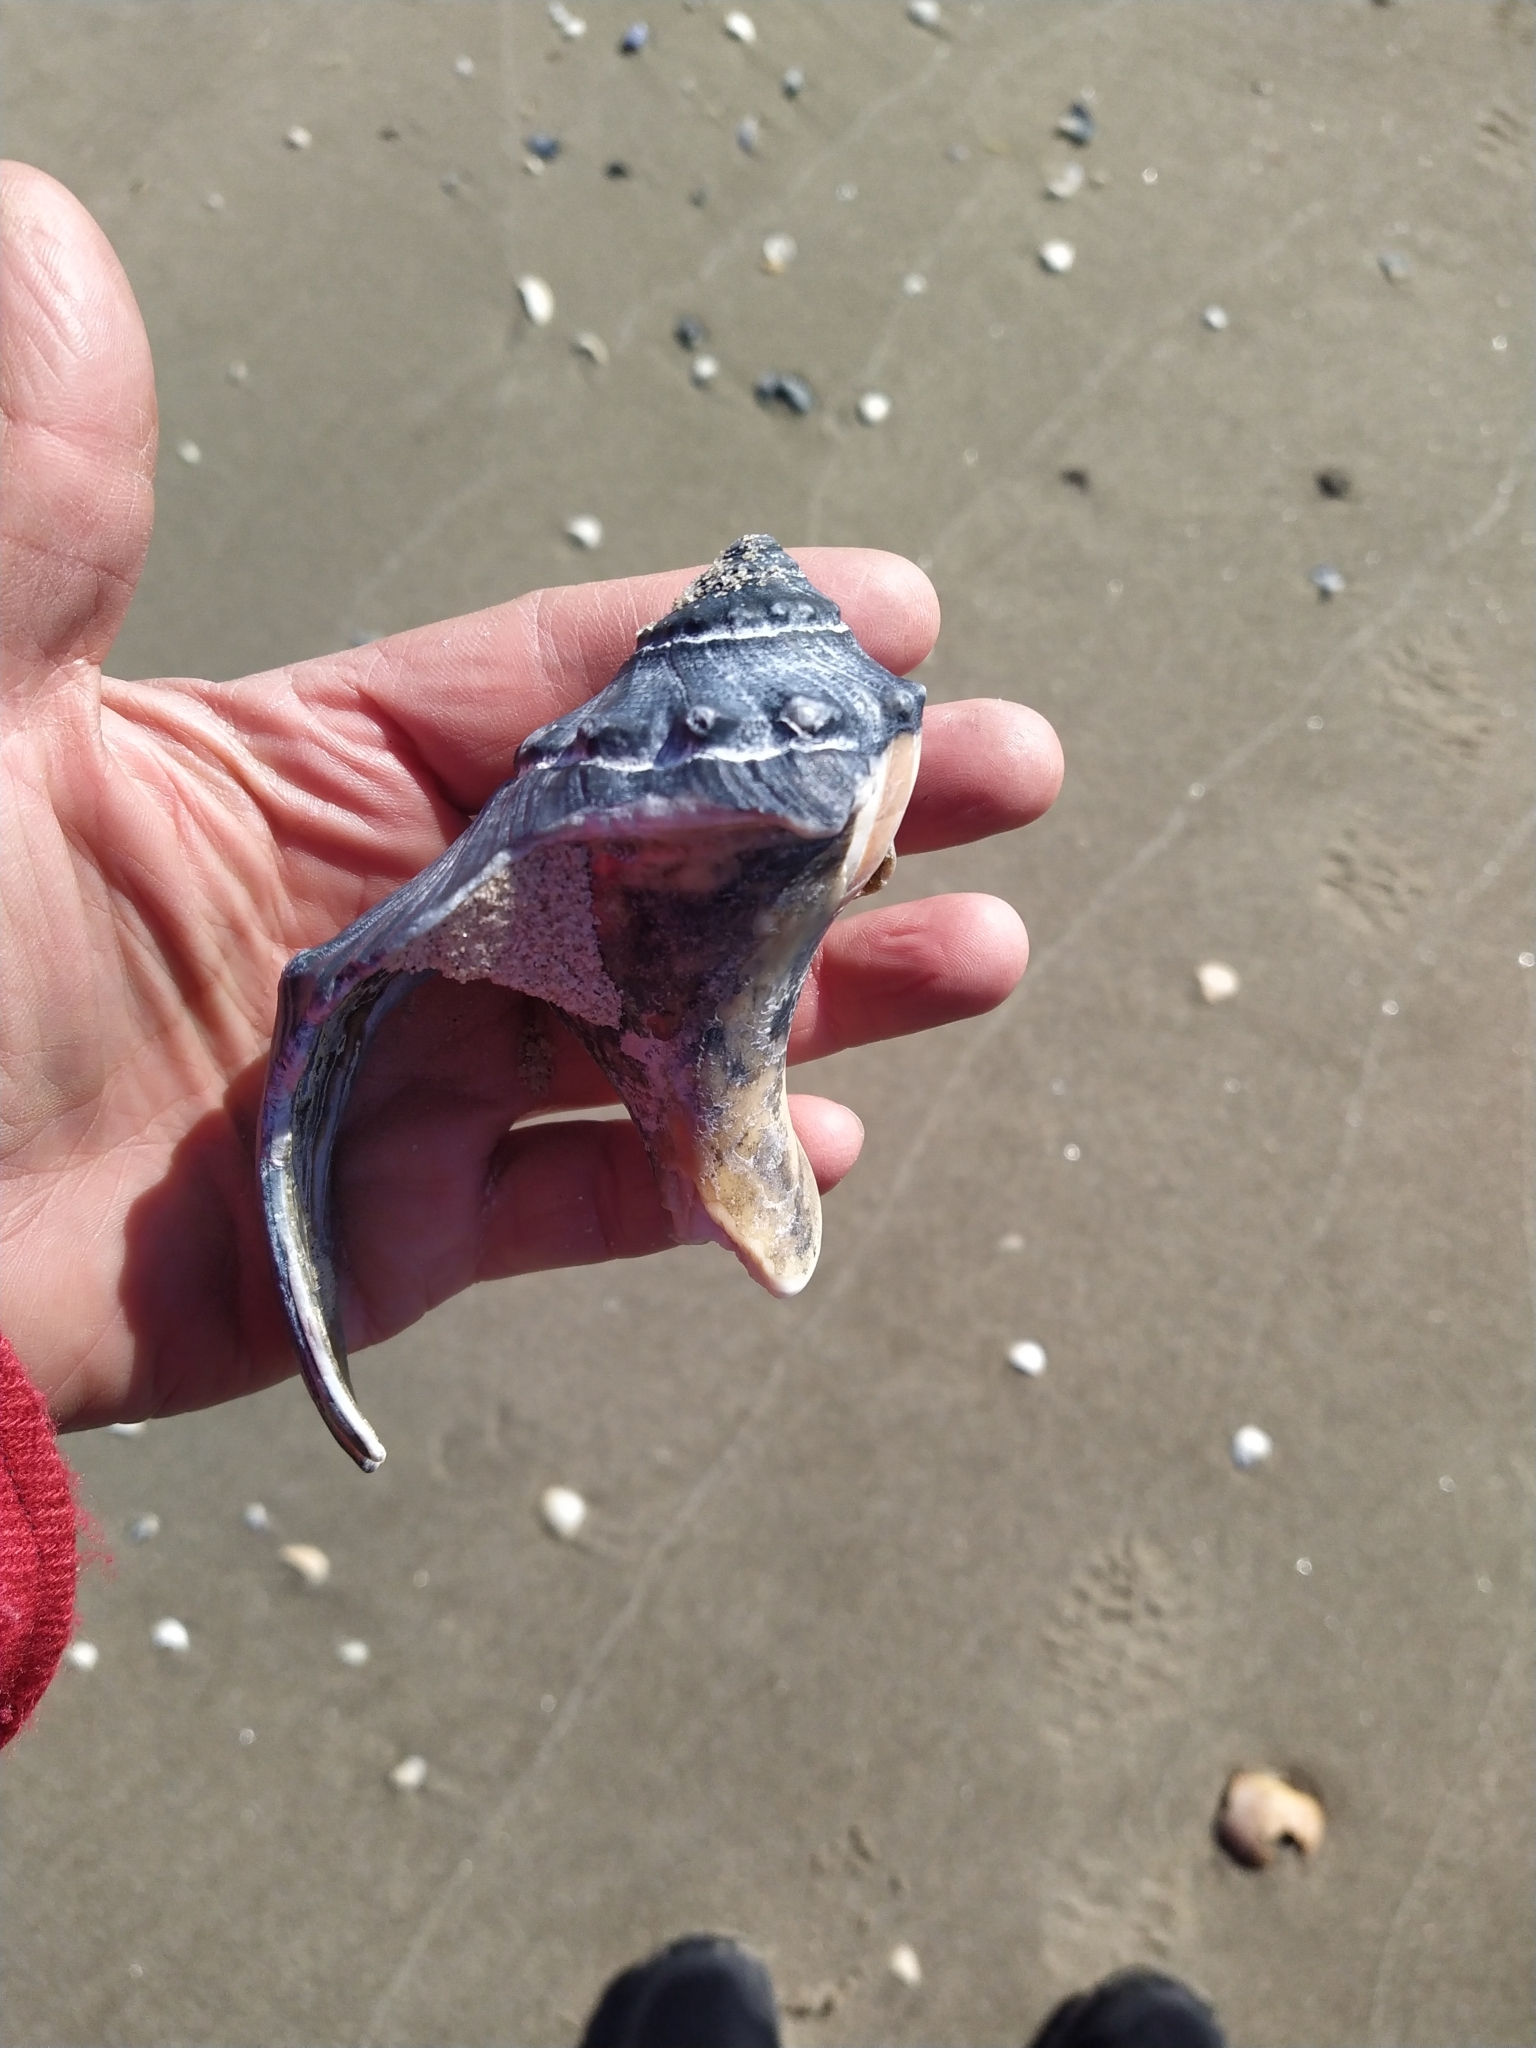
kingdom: Animalia
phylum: Mollusca
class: Gastropoda
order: Neogastropoda
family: Busyconidae
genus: Busycon
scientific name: Busycon carica
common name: Knobbed whelk
